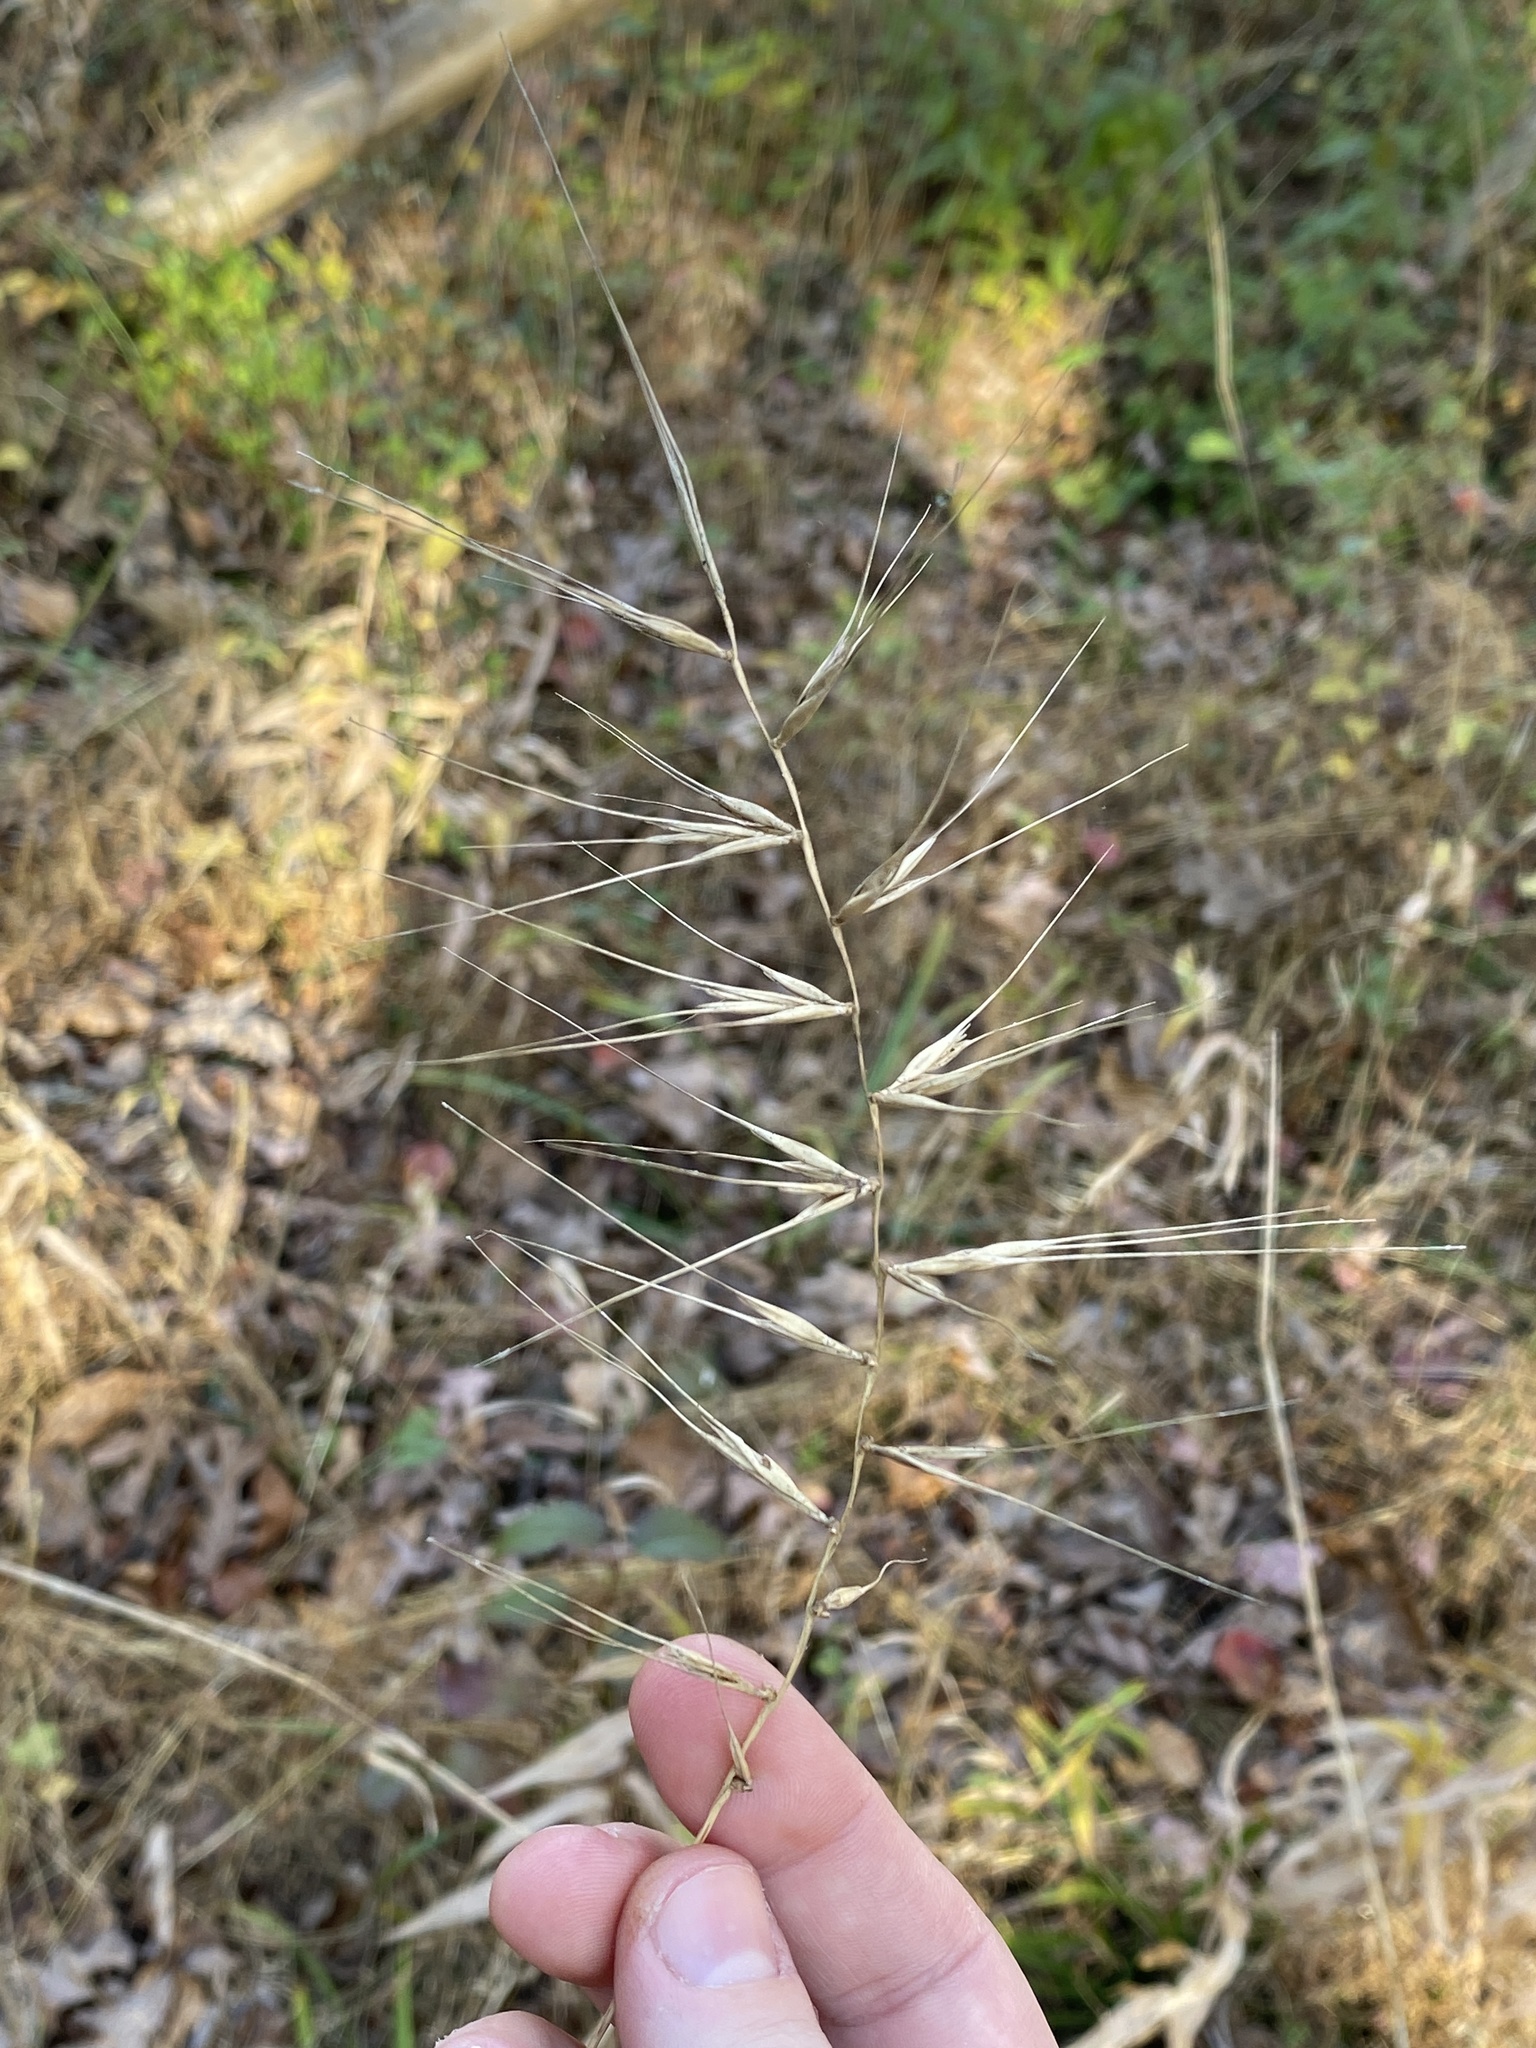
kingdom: Plantae
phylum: Tracheophyta
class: Liliopsida
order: Poales
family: Poaceae
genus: Elymus
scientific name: Elymus hystrix
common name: Bottlebrush grass
